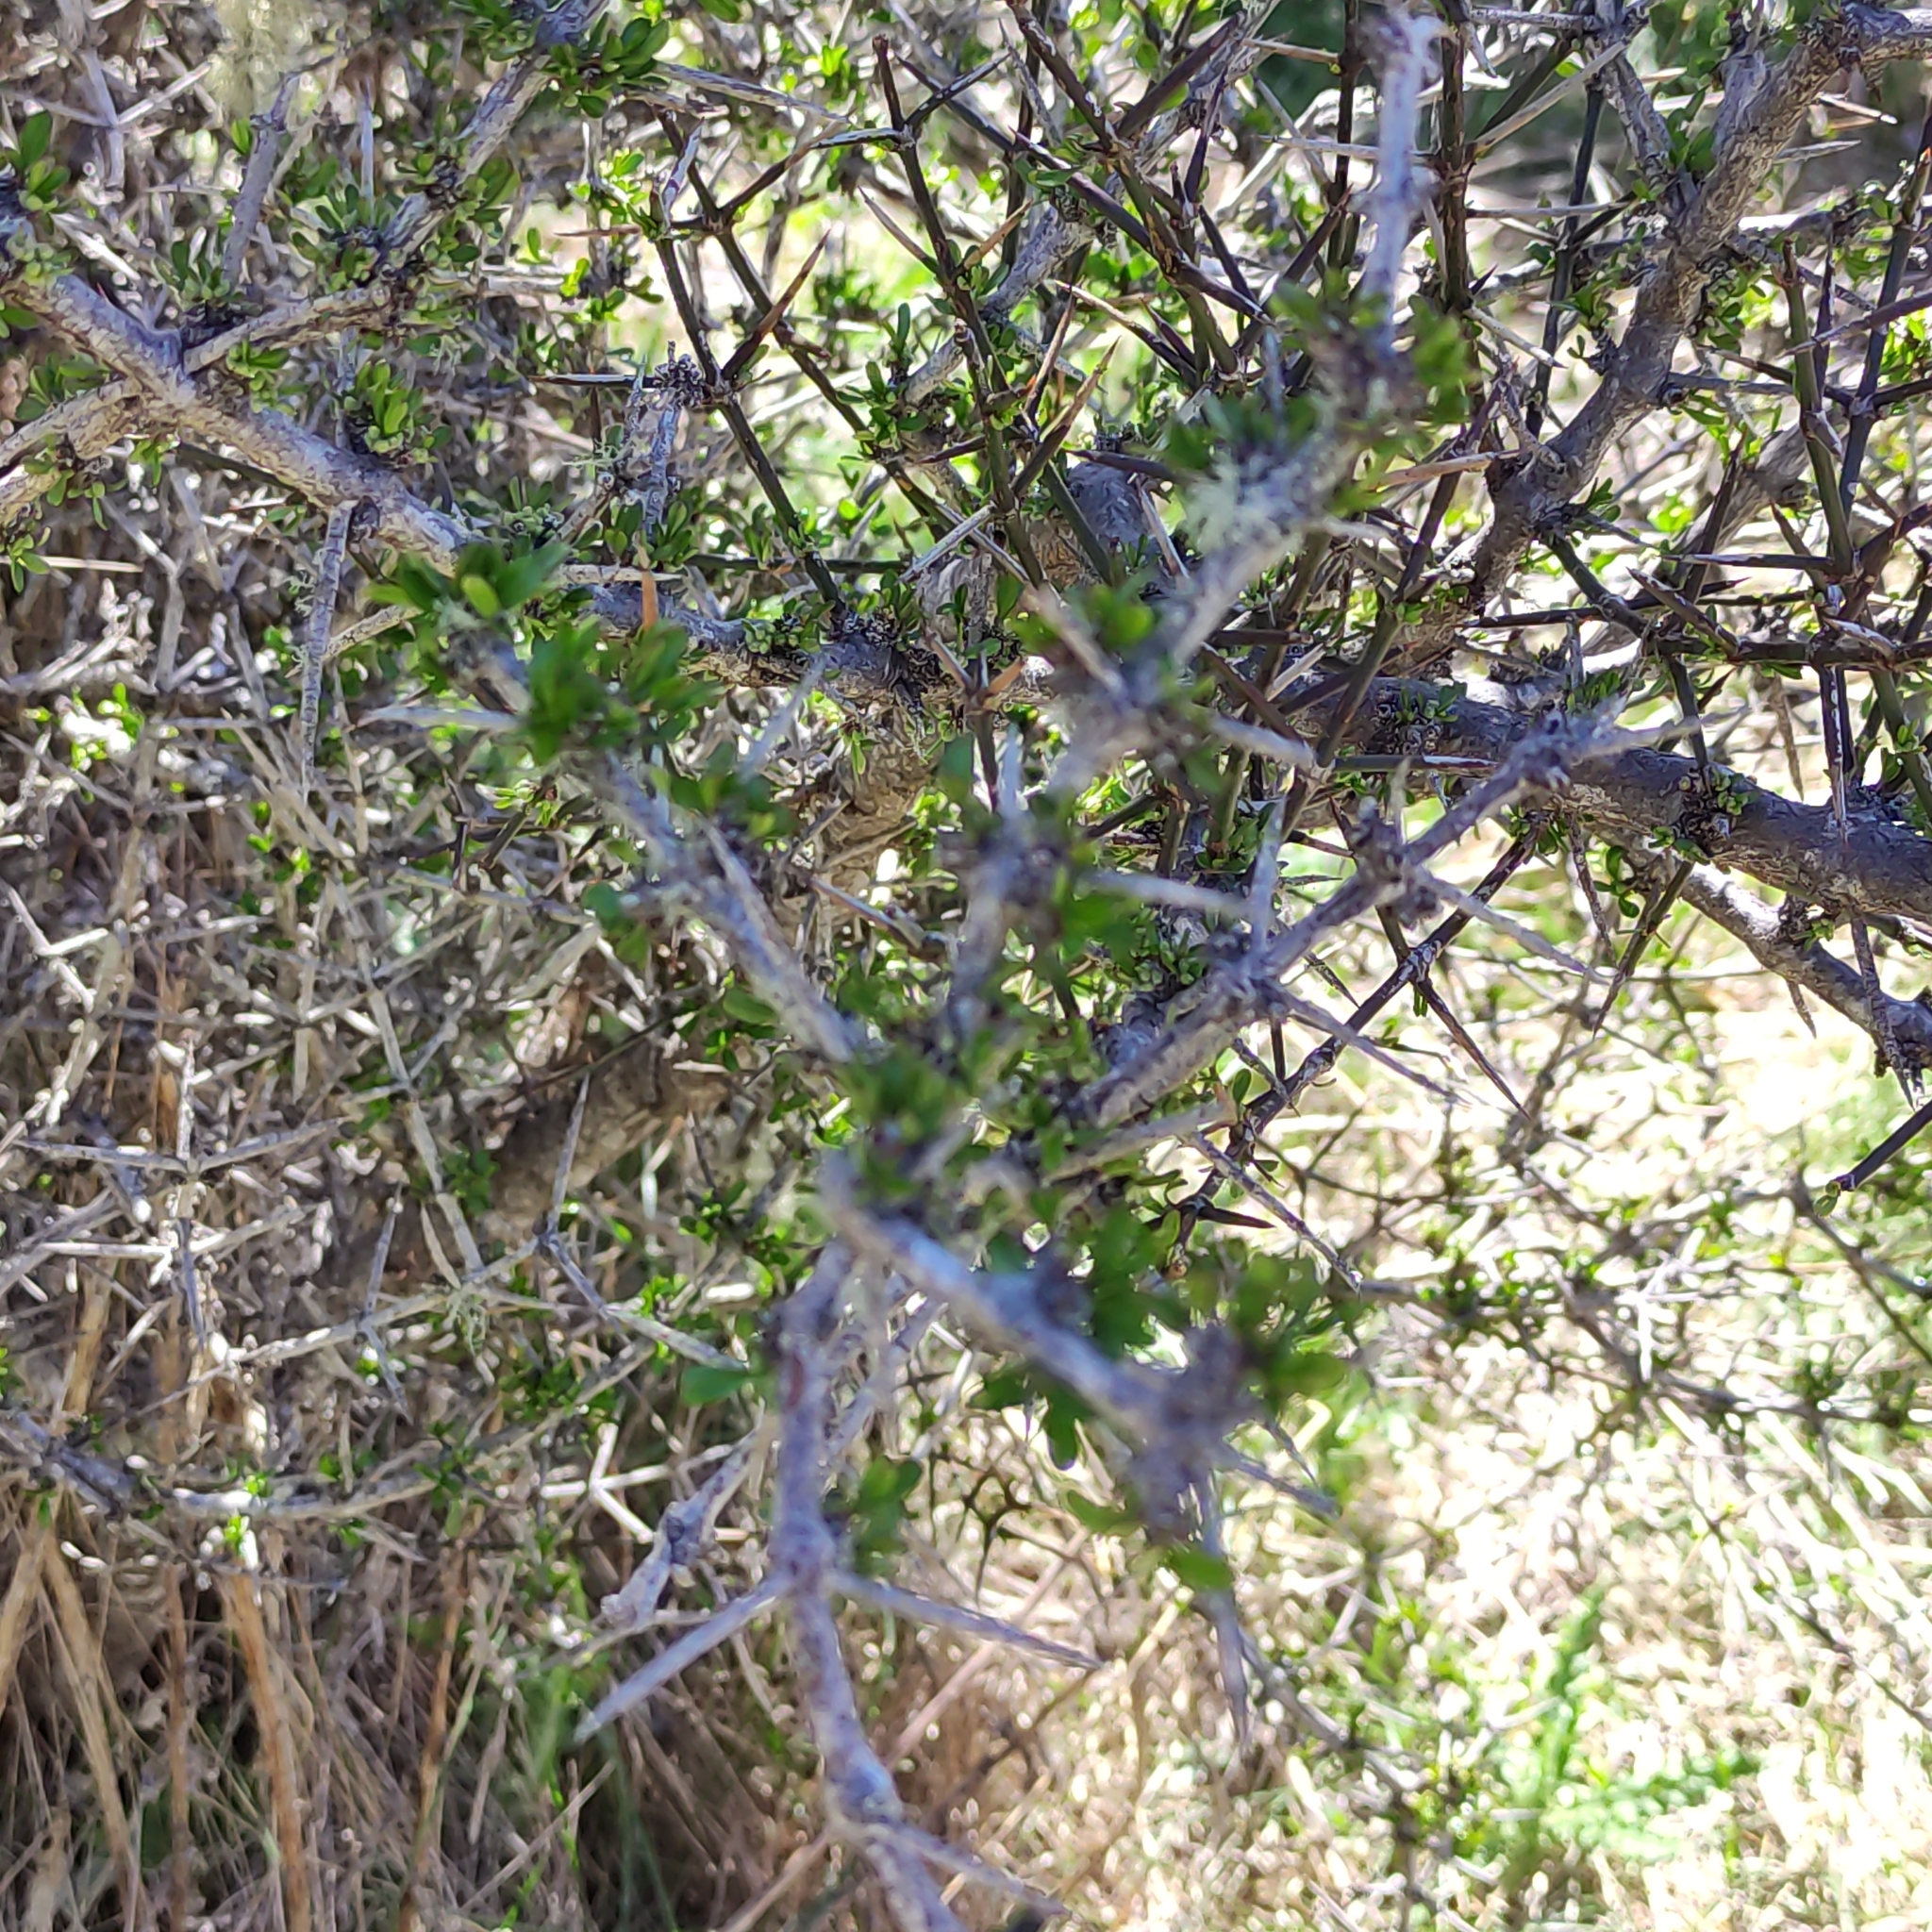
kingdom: Plantae
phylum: Tracheophyta
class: Magnoliopsida
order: Rosales
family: Rhamnaceae
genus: Discaria
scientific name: Discaria toumatou
